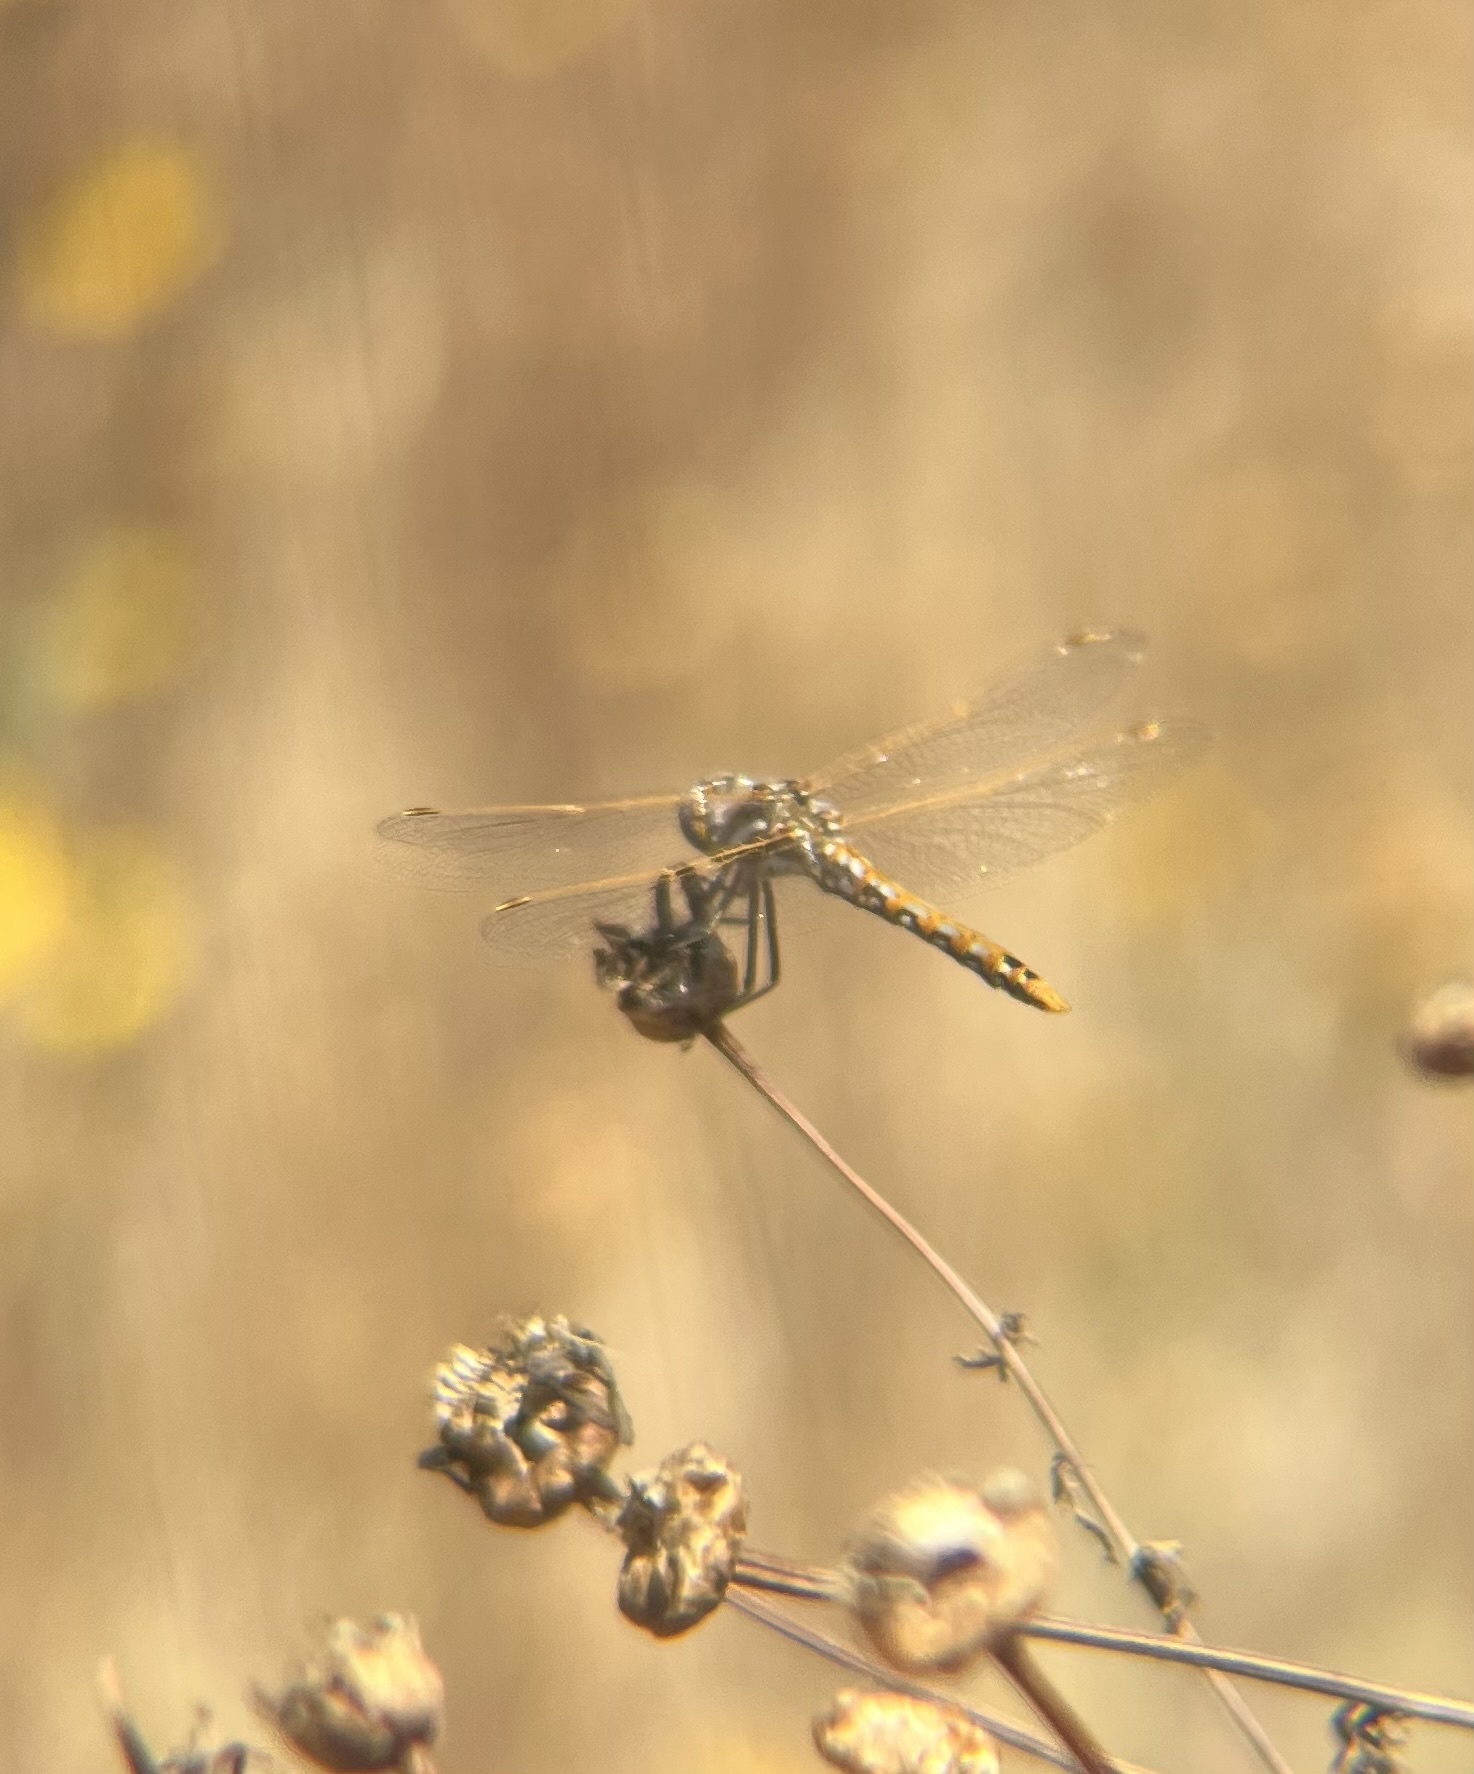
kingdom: Animalia
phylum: Arthropoda
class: Insecta
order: Odonata
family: Libellulidae
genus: Sympetrum
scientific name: Sympetrum corruptum
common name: Variegated meadowhawk
